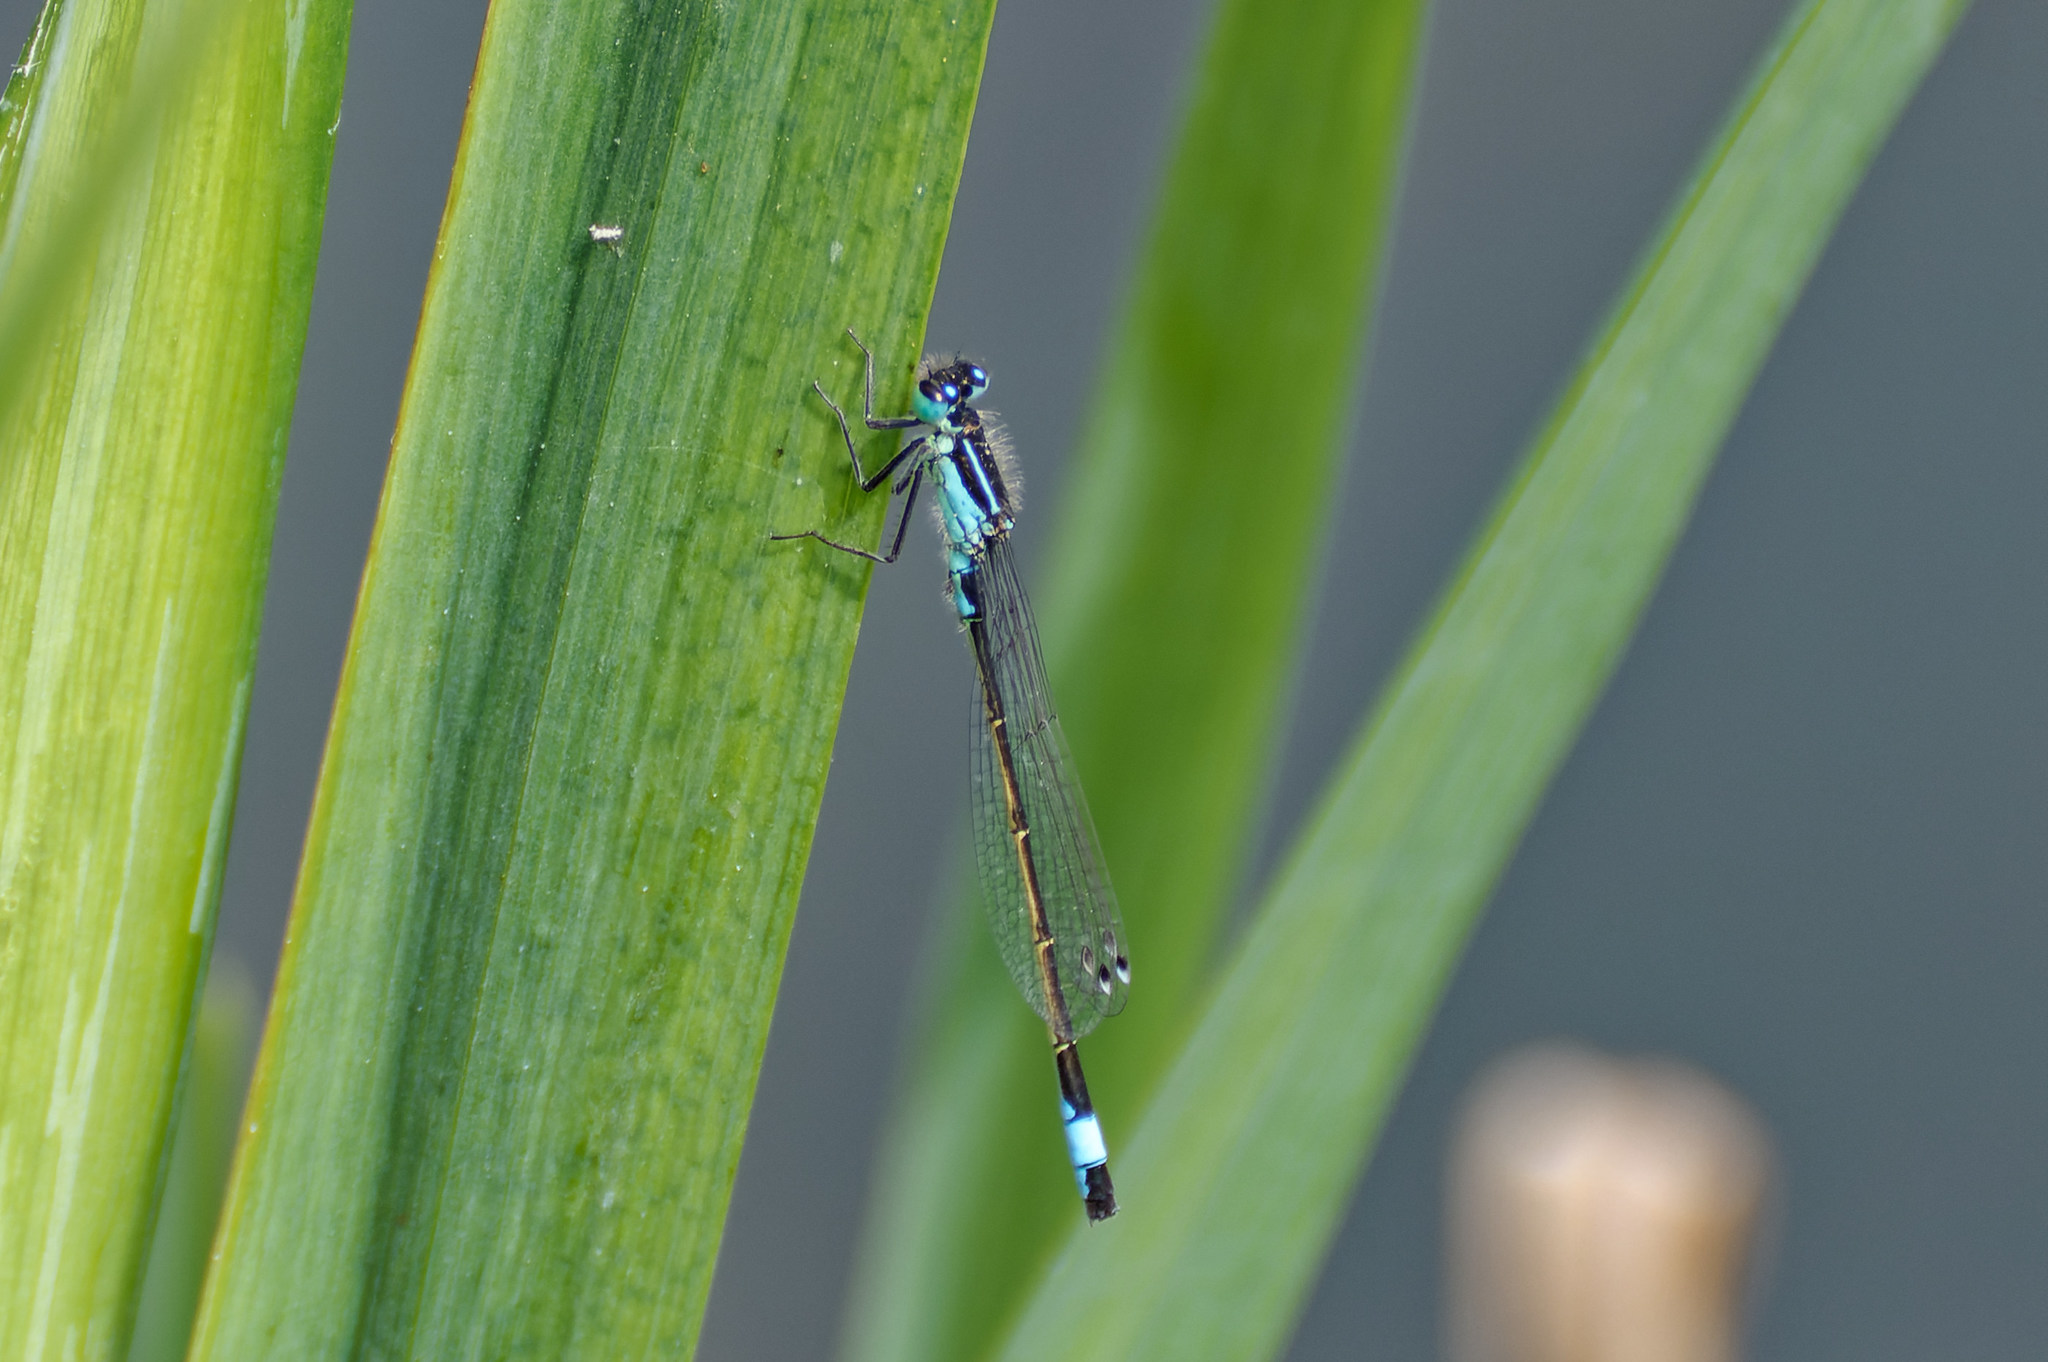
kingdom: Animalia
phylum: Arthropoda
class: Insecta
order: Odonata
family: Coenagrionidae
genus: Ischnura
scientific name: Ischnura elegans
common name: Blue-tailed damselfly
